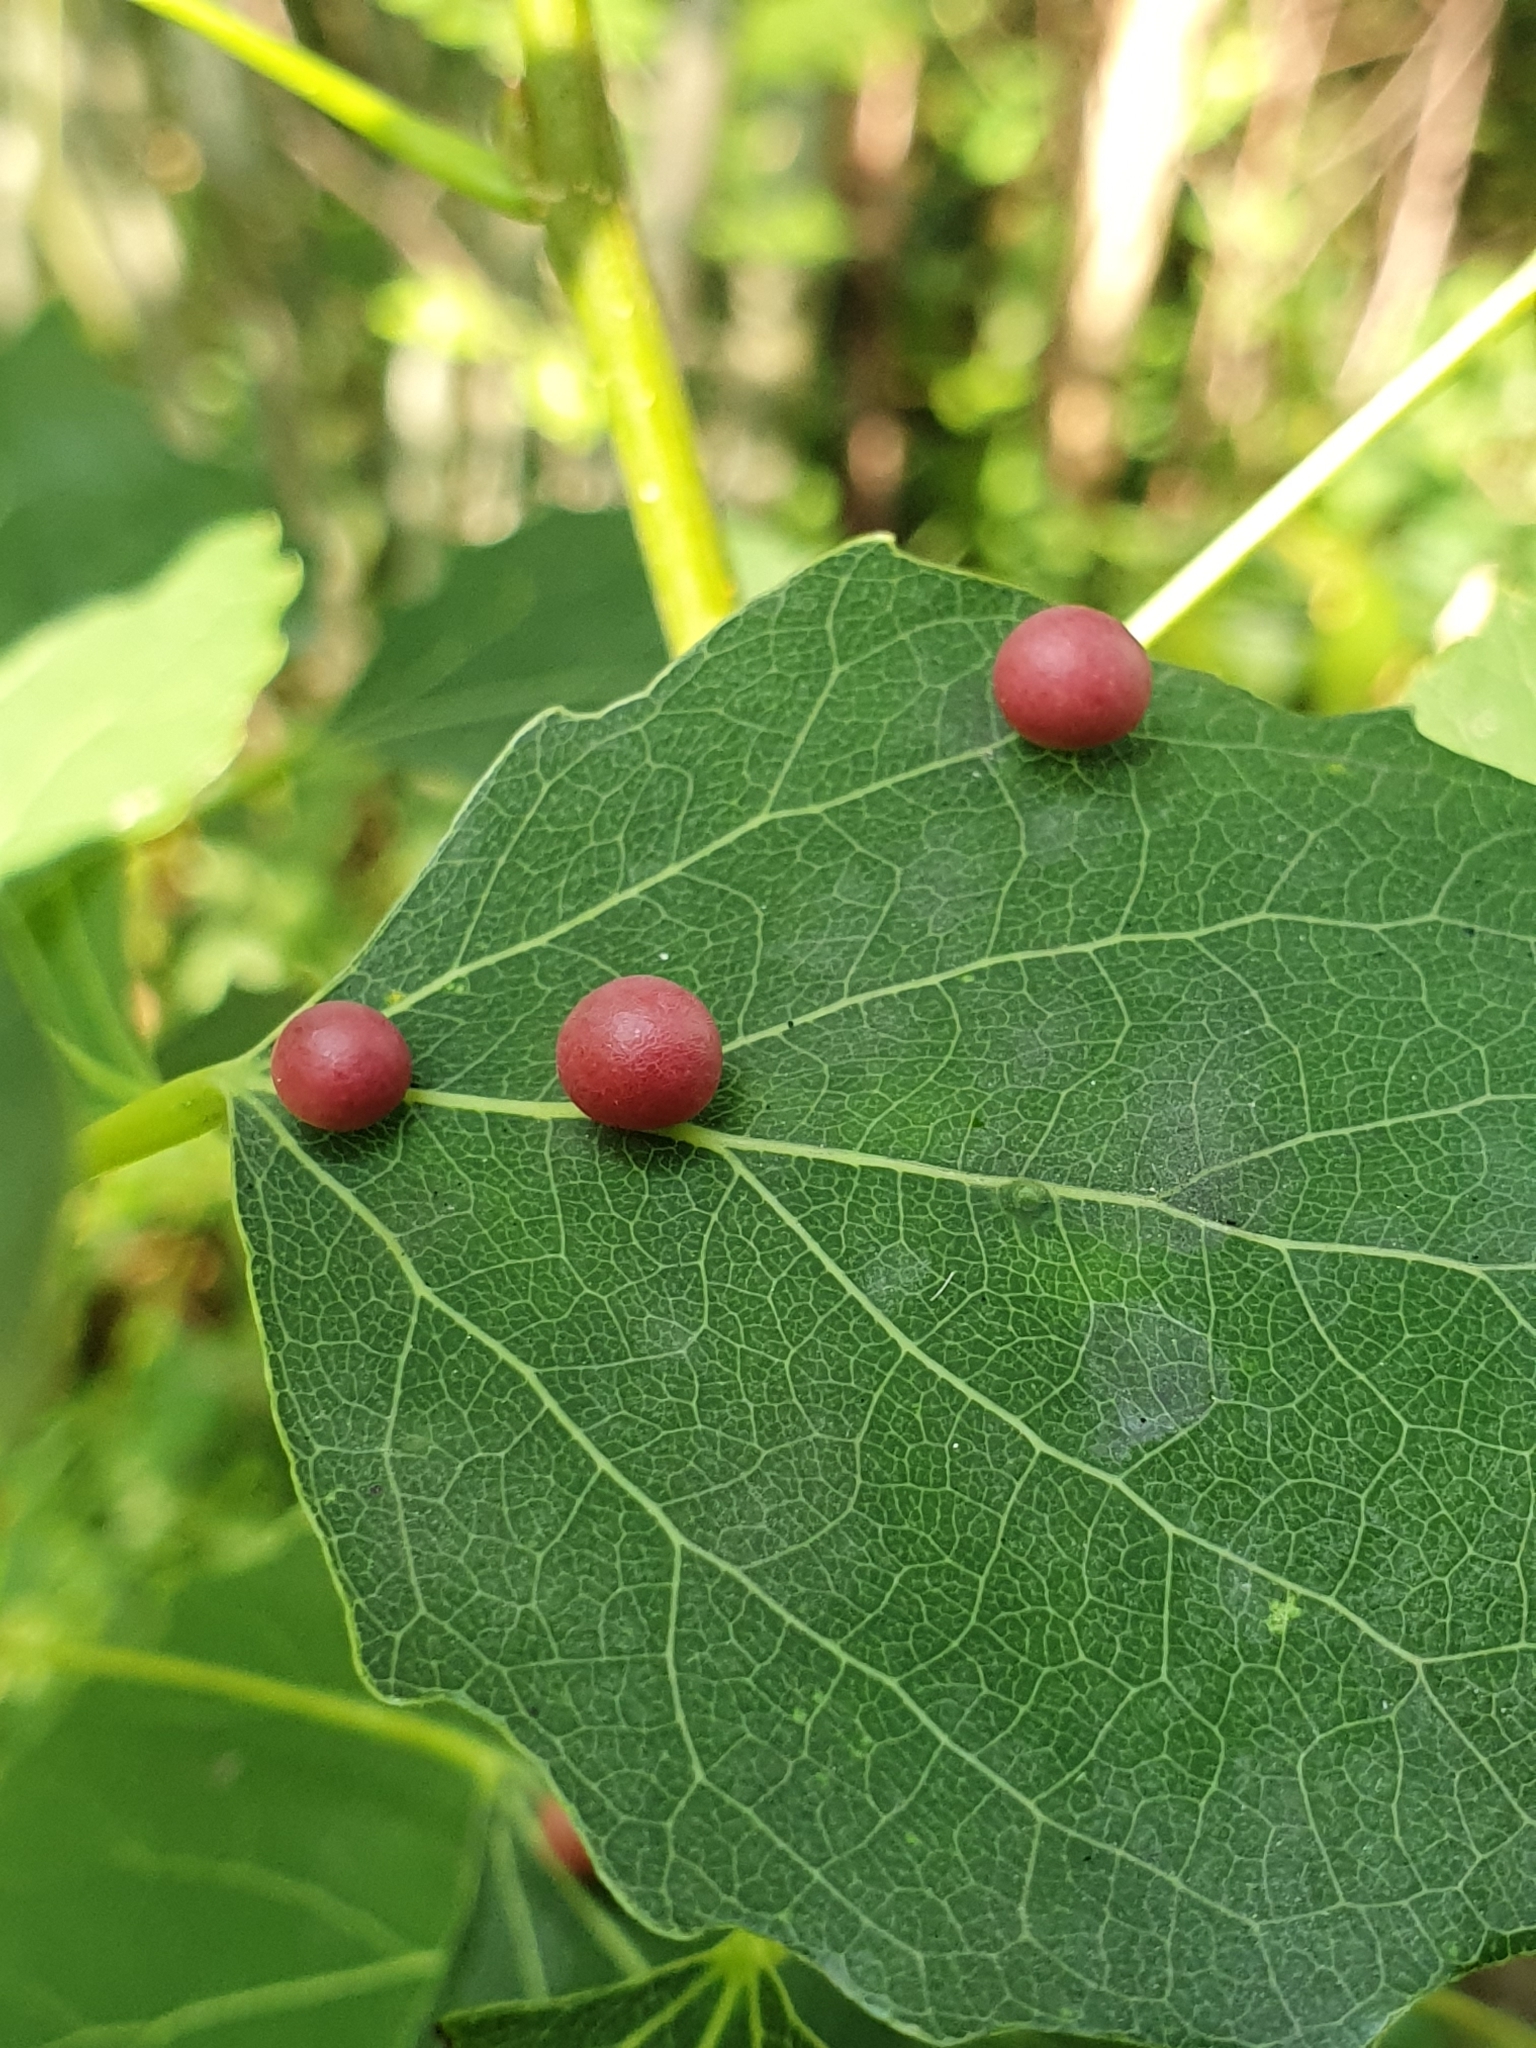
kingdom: Animalia
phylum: Arthropoda
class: Insecta
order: Diptera
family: Cecidomyiidae
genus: Harmandiola
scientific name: Harmandiola tremulae
